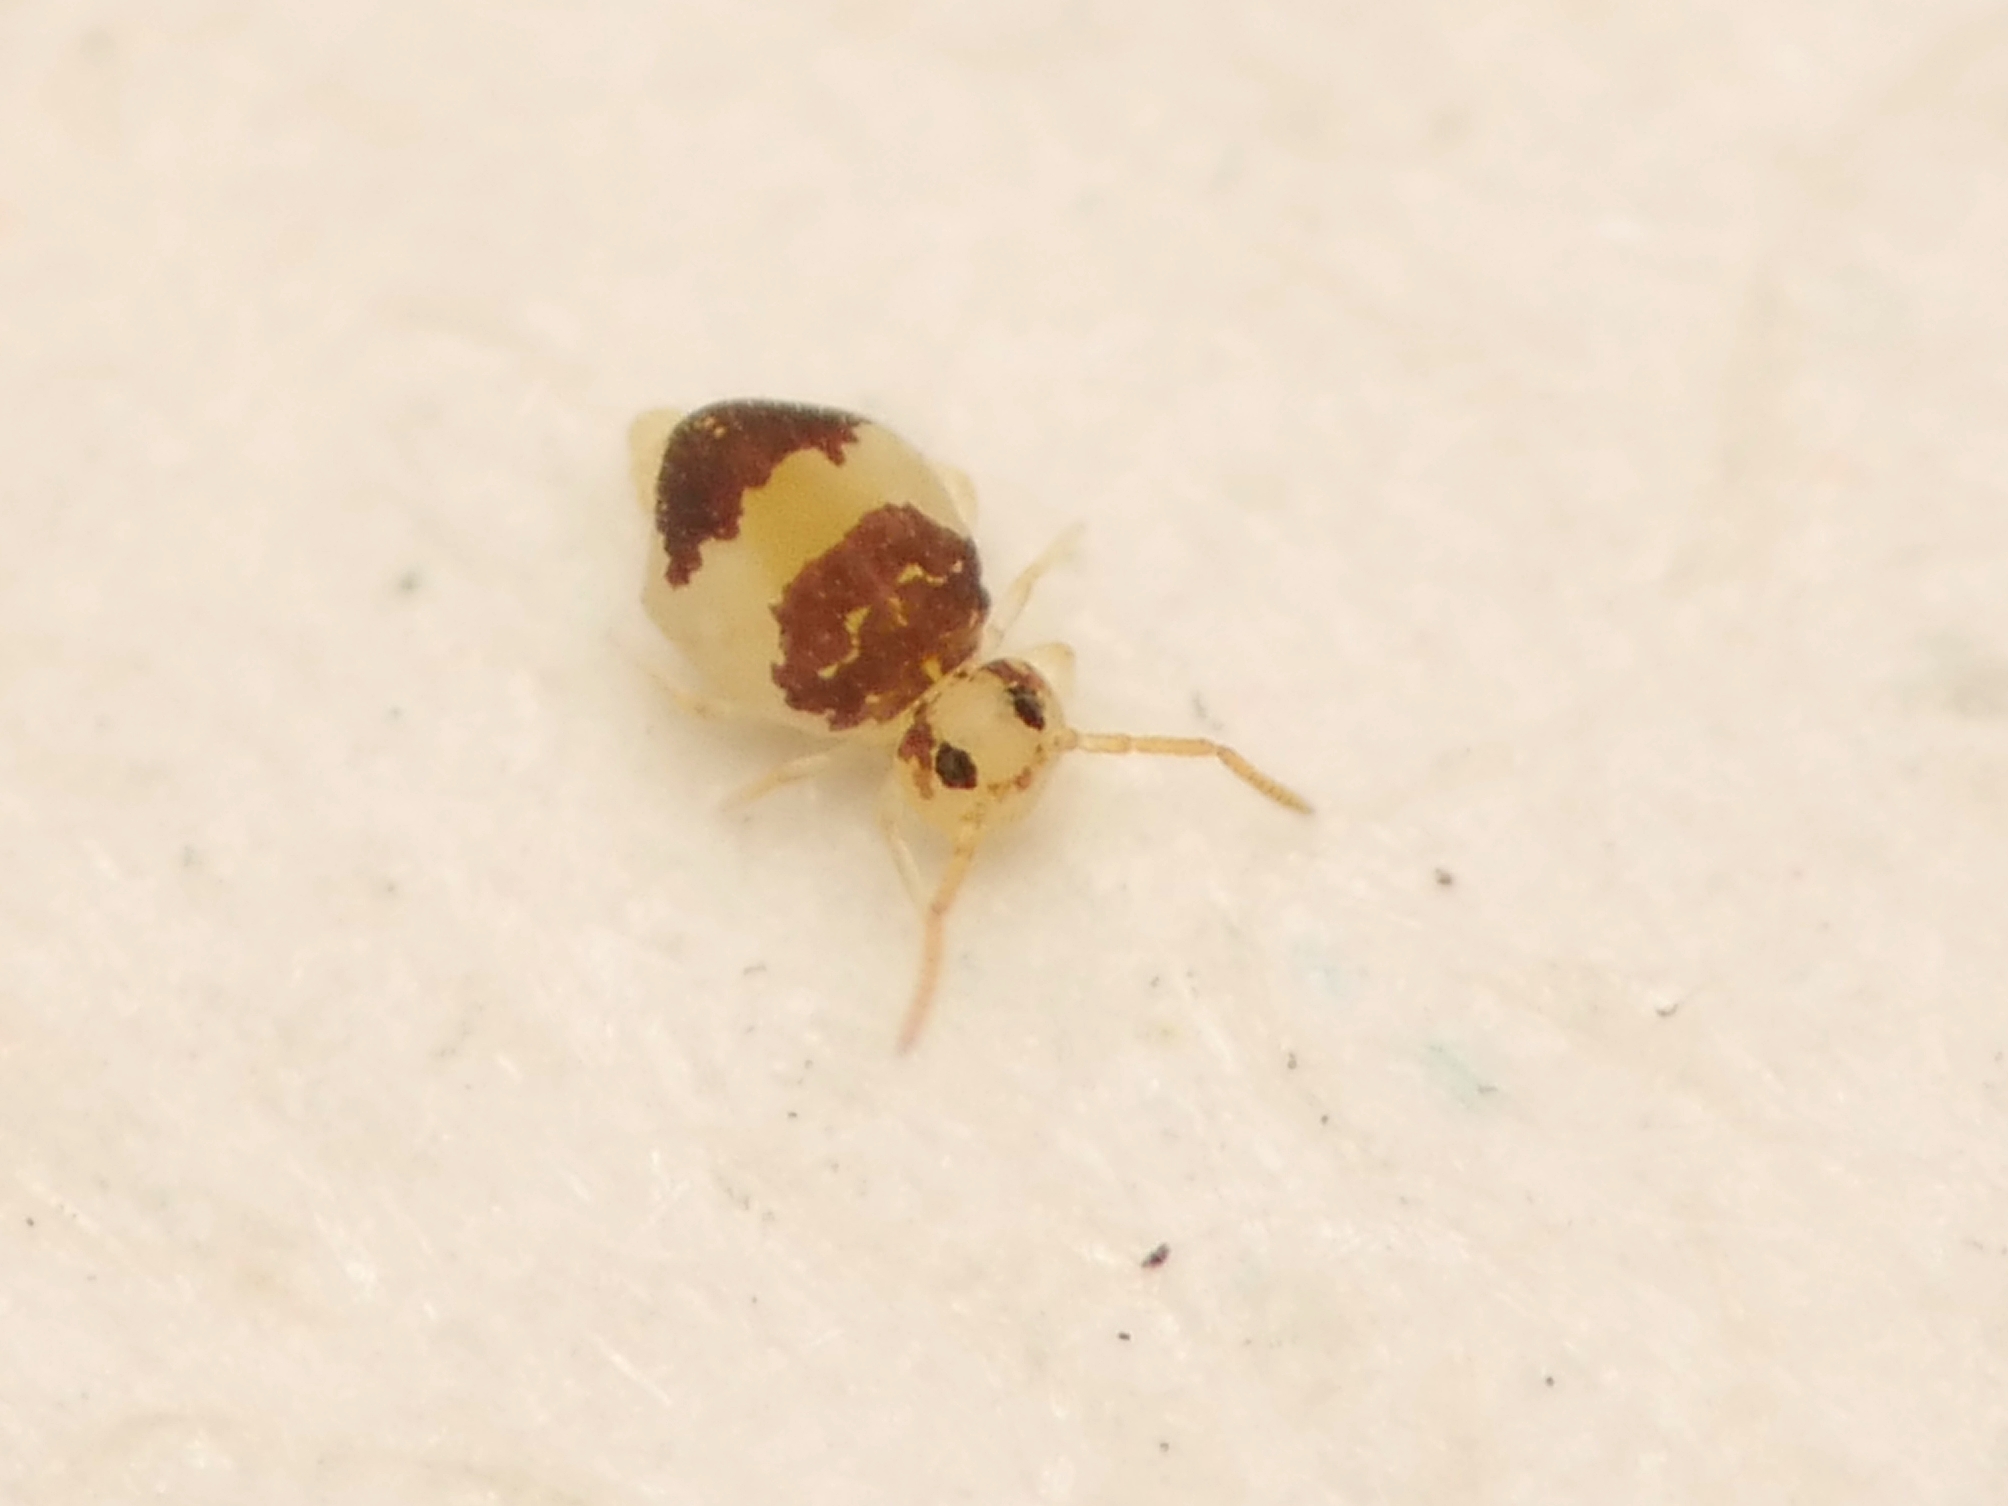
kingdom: Animalia
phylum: Arthropoda
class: Collembola
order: Symphypleona
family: Bourletiellidae
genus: Deuterosminthurus
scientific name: Deuterosminthurus bicinctus
